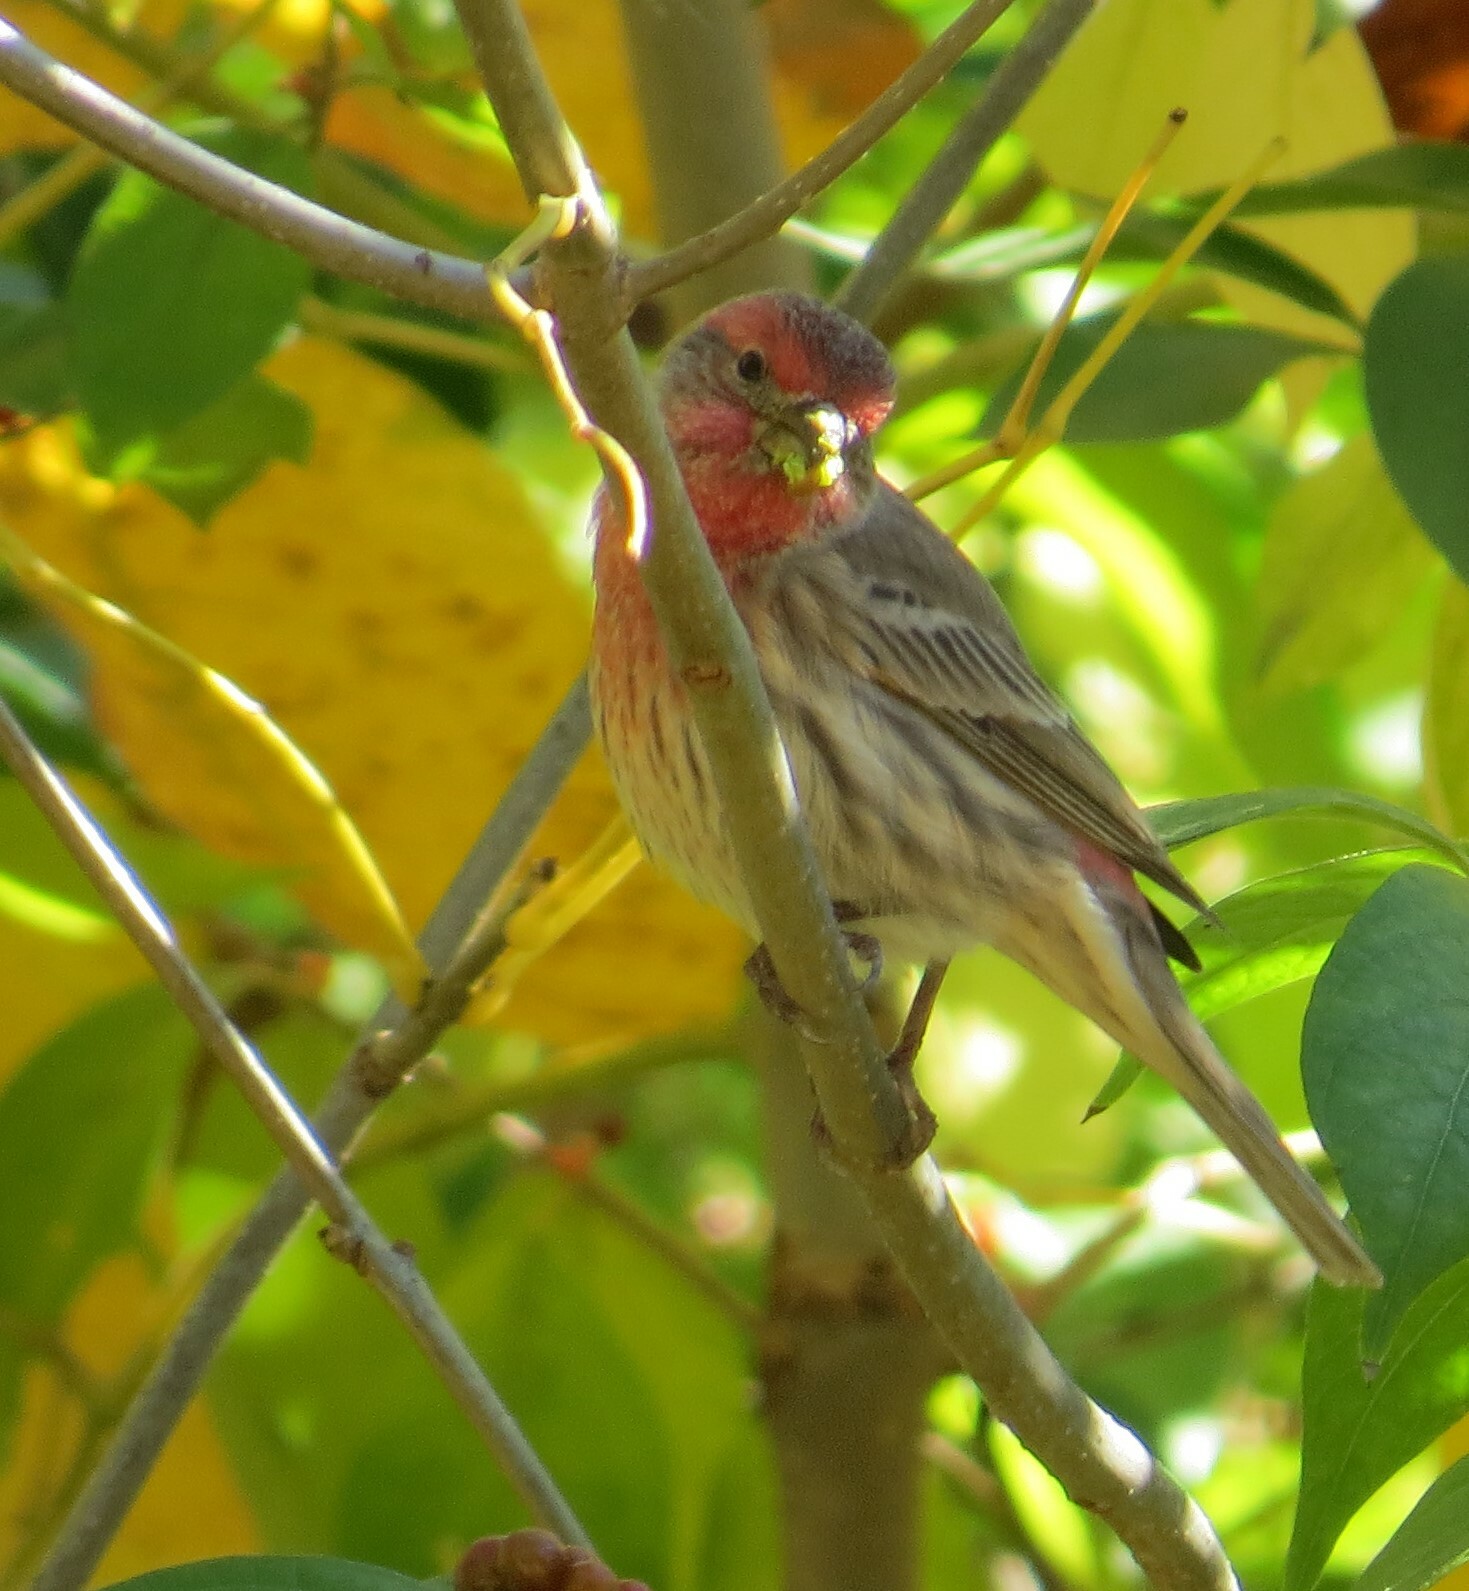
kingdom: Animalia
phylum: Chordata
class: Aves
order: Passeriformes
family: Fringillidae
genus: Haemorhous
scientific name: Haemorhous mexicanus
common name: House finch
